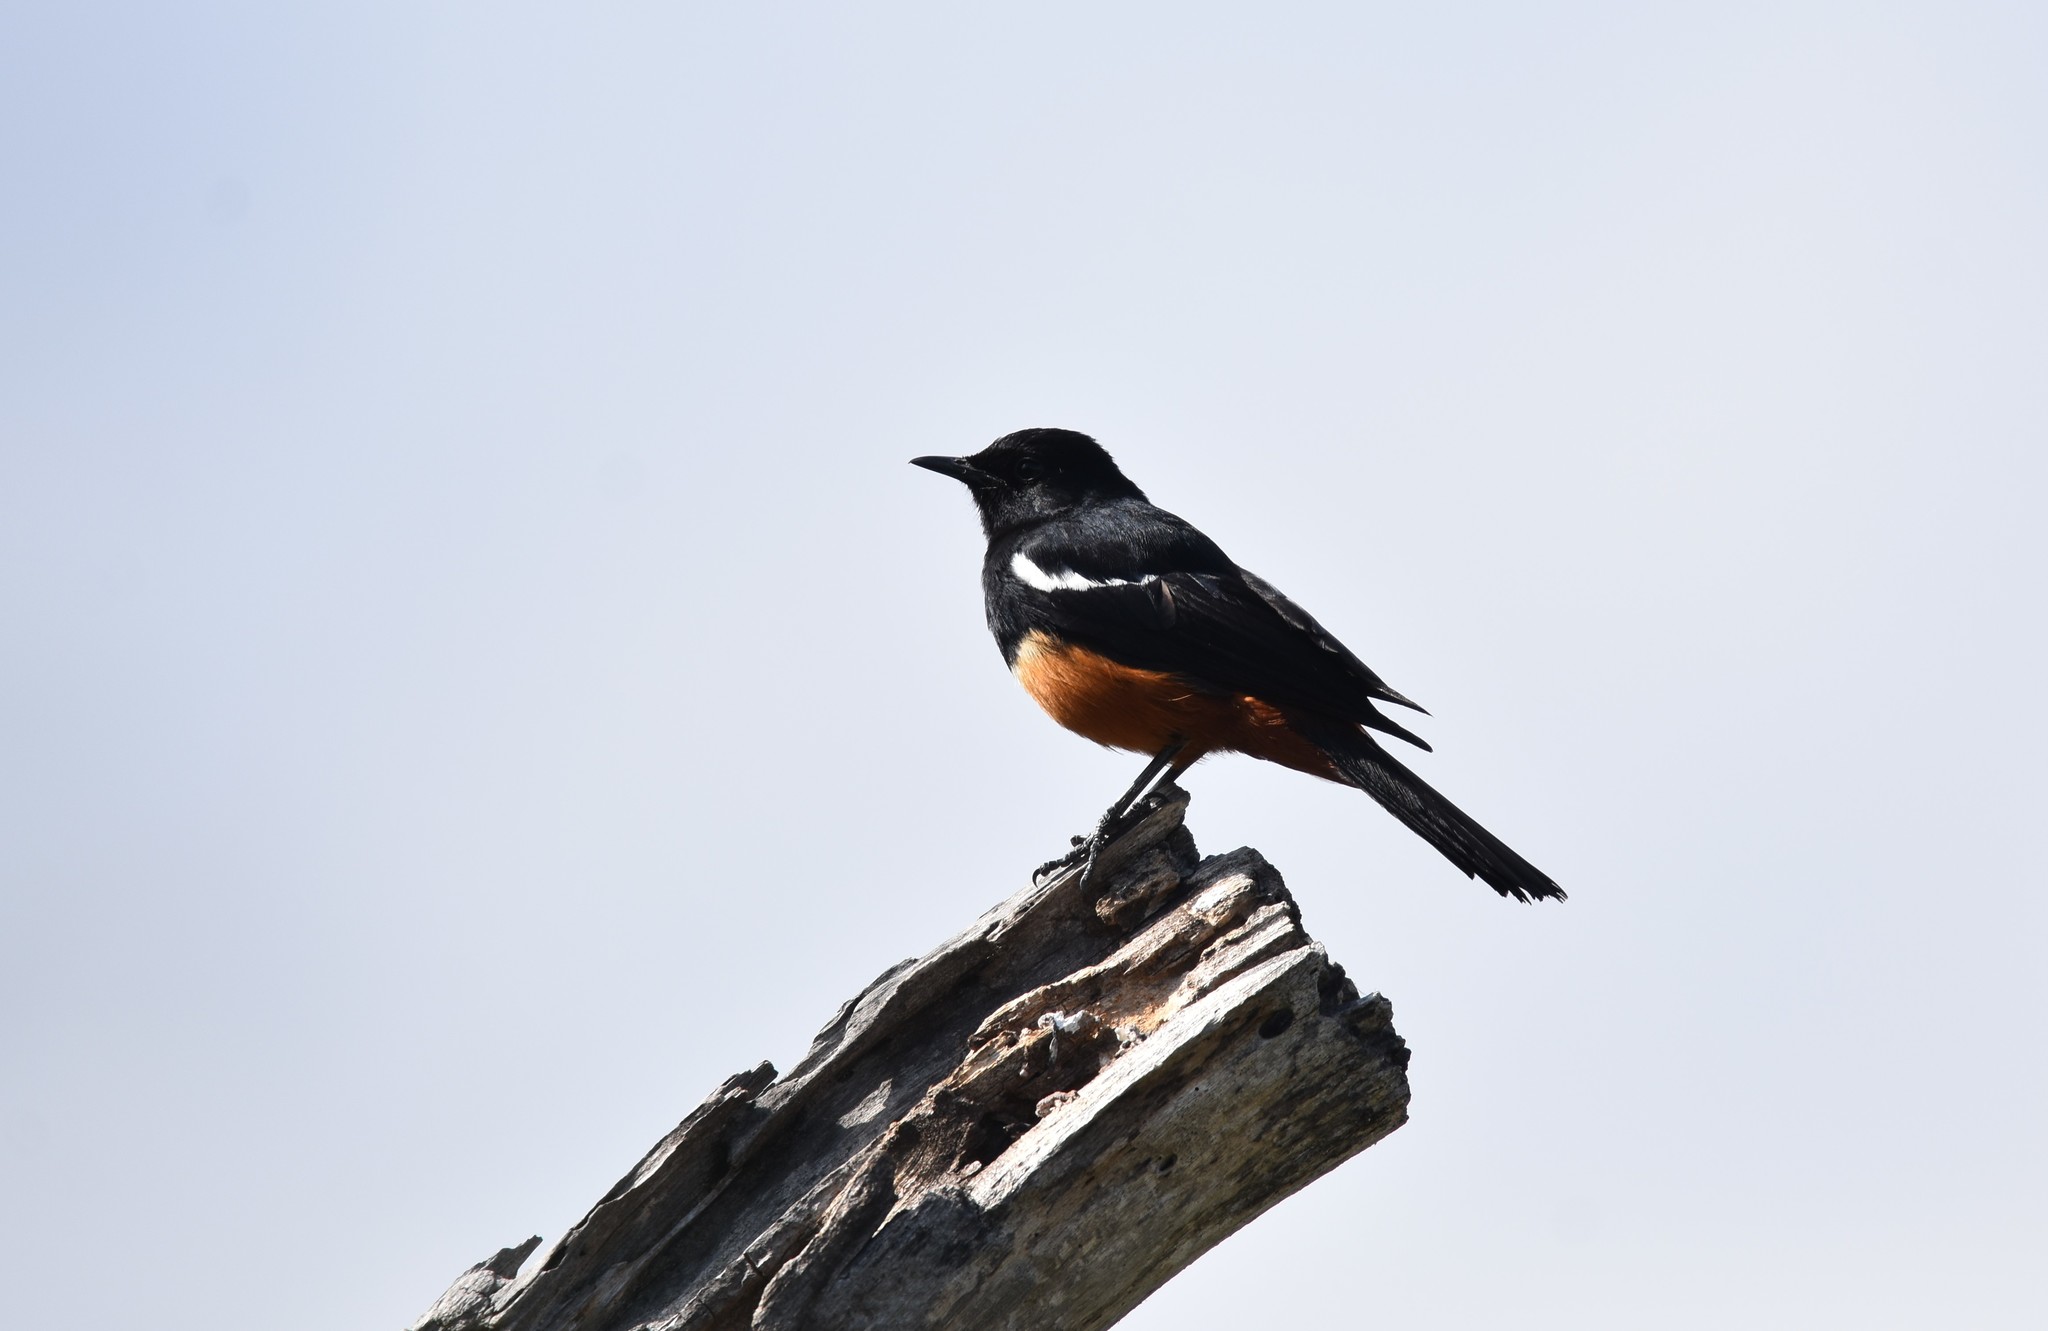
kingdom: Animalia
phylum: Chordata
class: Aves
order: Passeriformes
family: Muscicapidae
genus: Thamnolaea
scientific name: Thamnolaea cinnamomeiventris
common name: Mocking cliff chat
